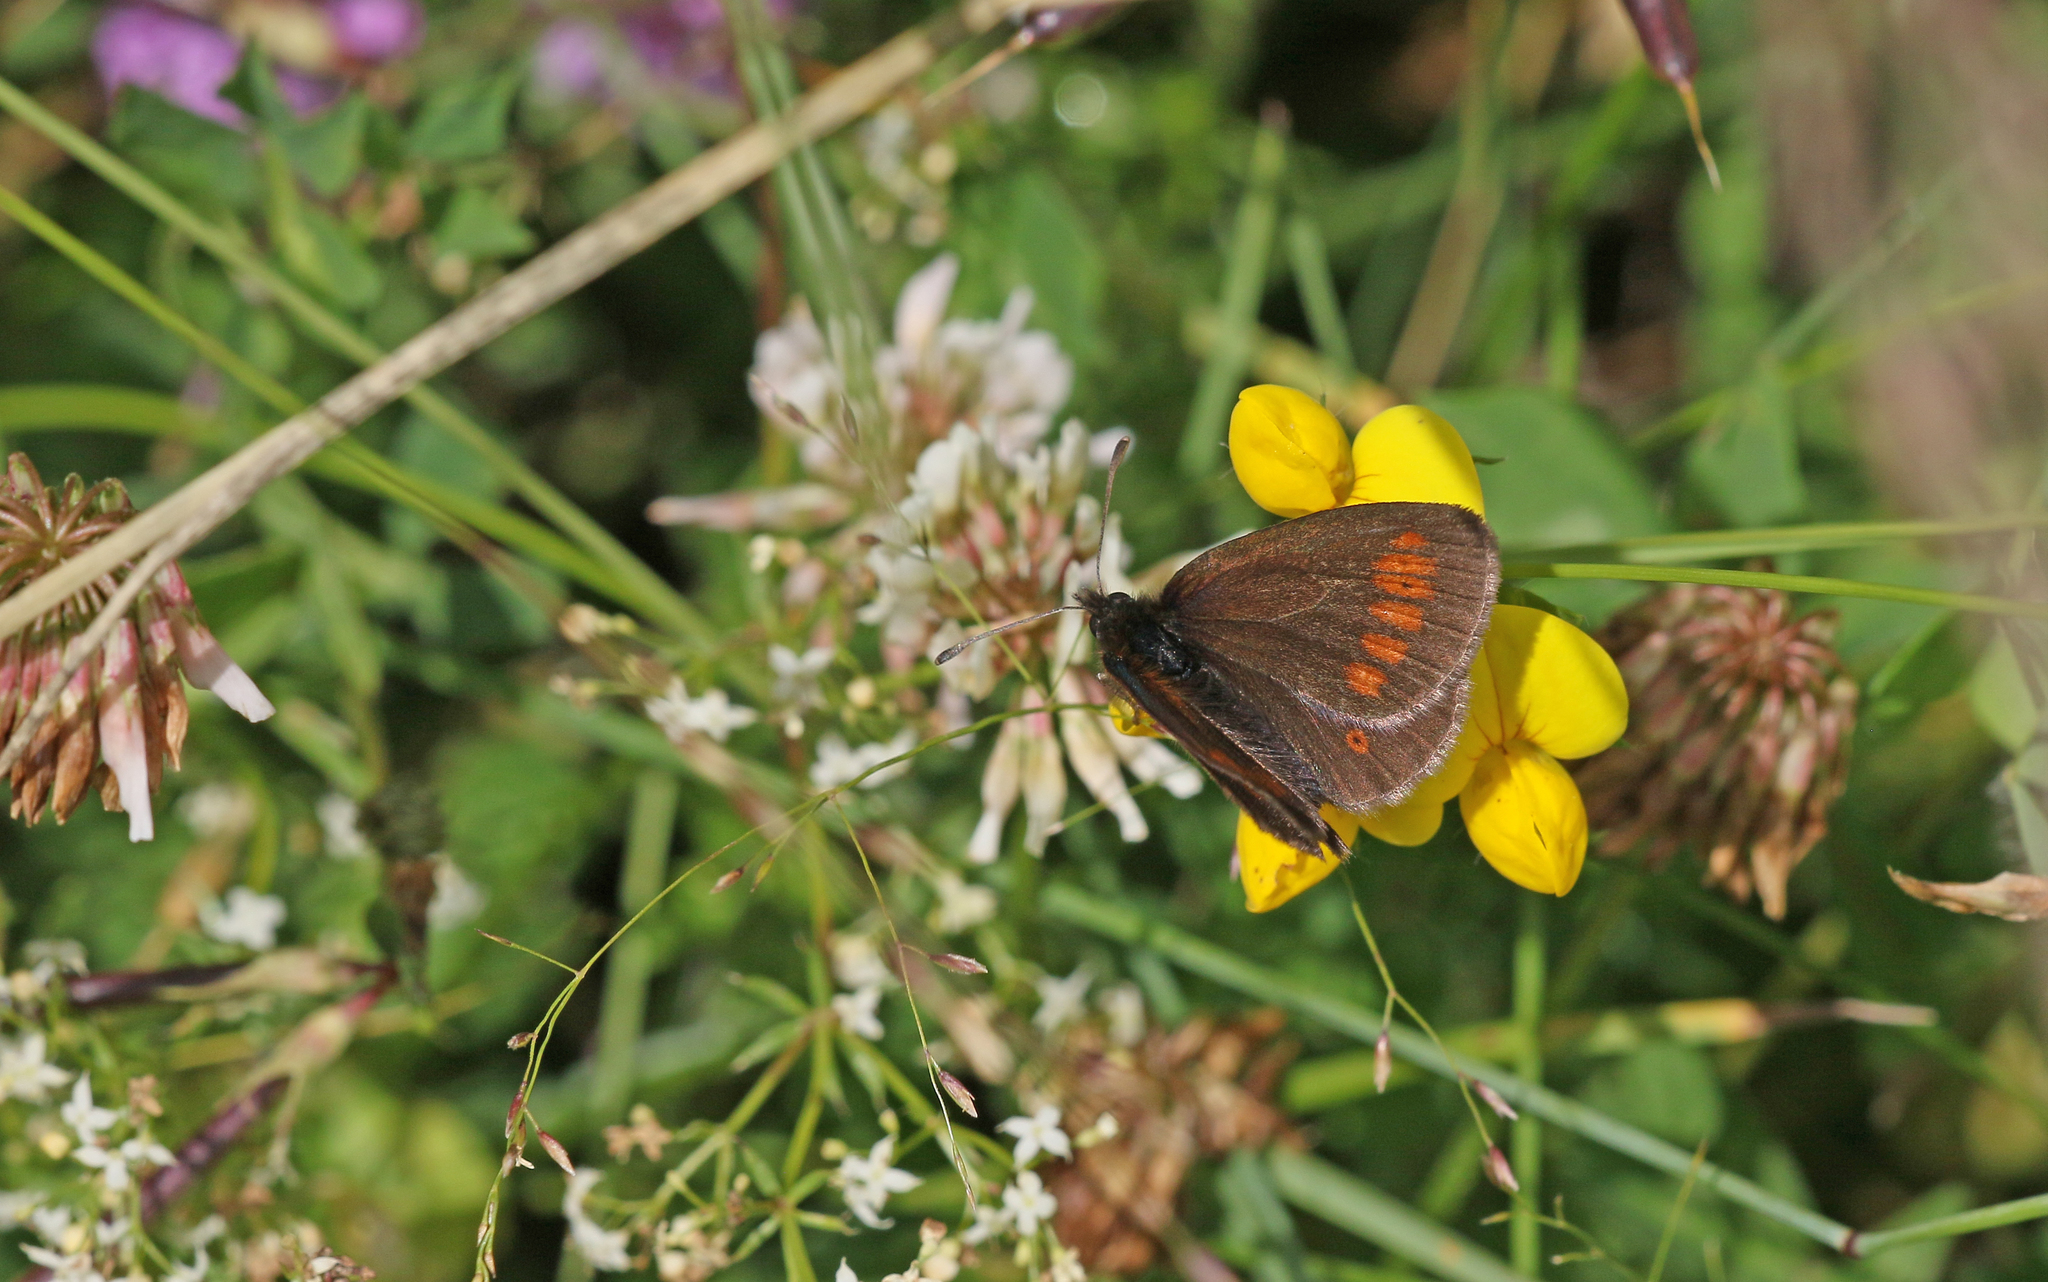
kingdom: Animalia
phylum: Arthropoda
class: Insecta
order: Lepidoptera
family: Nymphalidae
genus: Erebia
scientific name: Erebia melampus
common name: Lesser mountain ringlet
